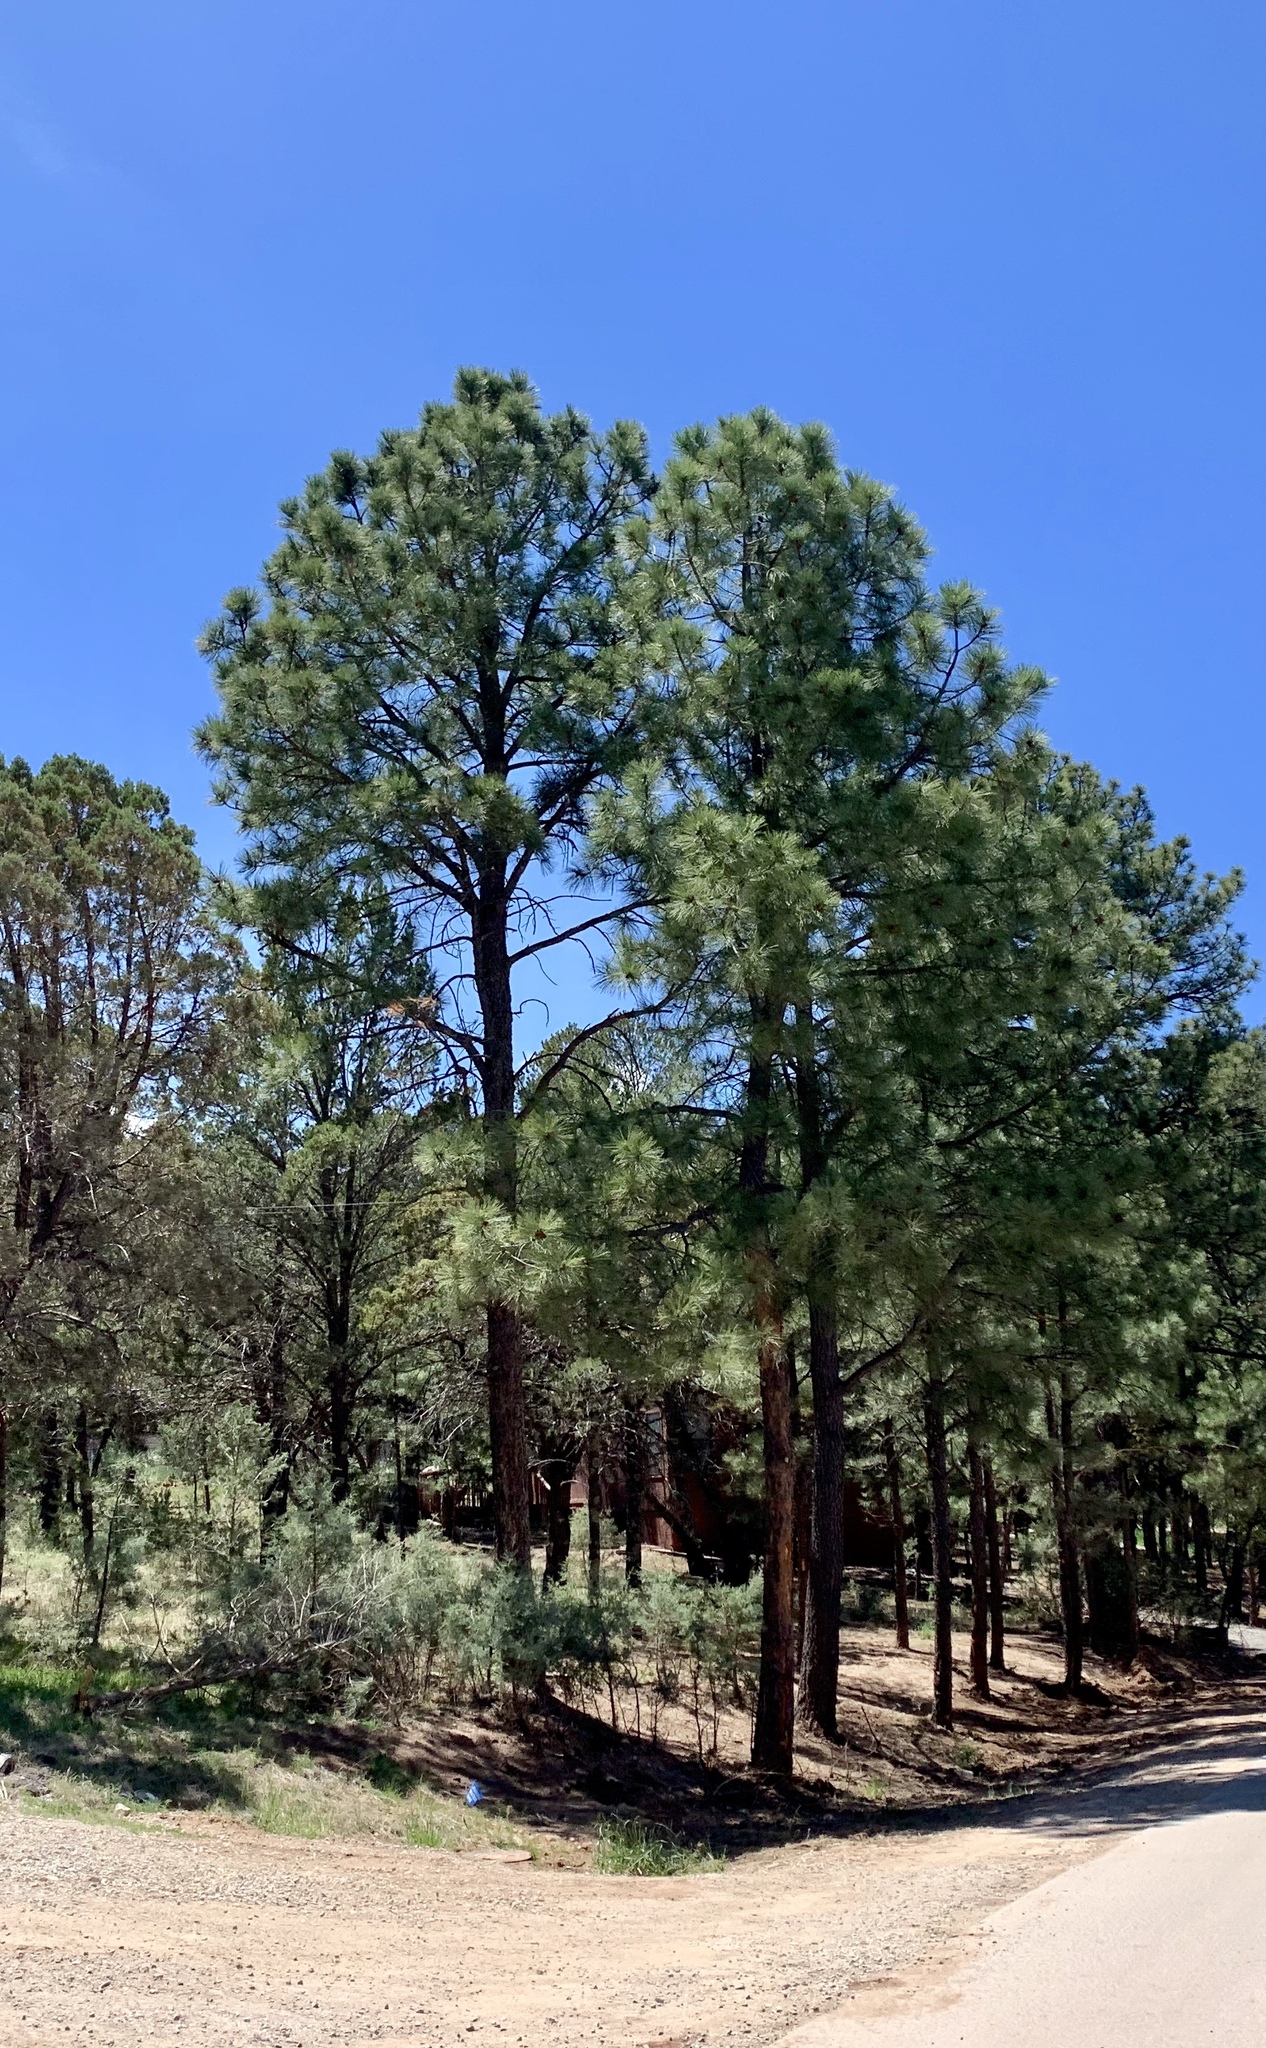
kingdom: Plantae
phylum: Tracheophyta
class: Pinopsida
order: Pinales
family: Pinaceae
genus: Pinus
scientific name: Pinus ponderosa
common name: Western yellow-pine
